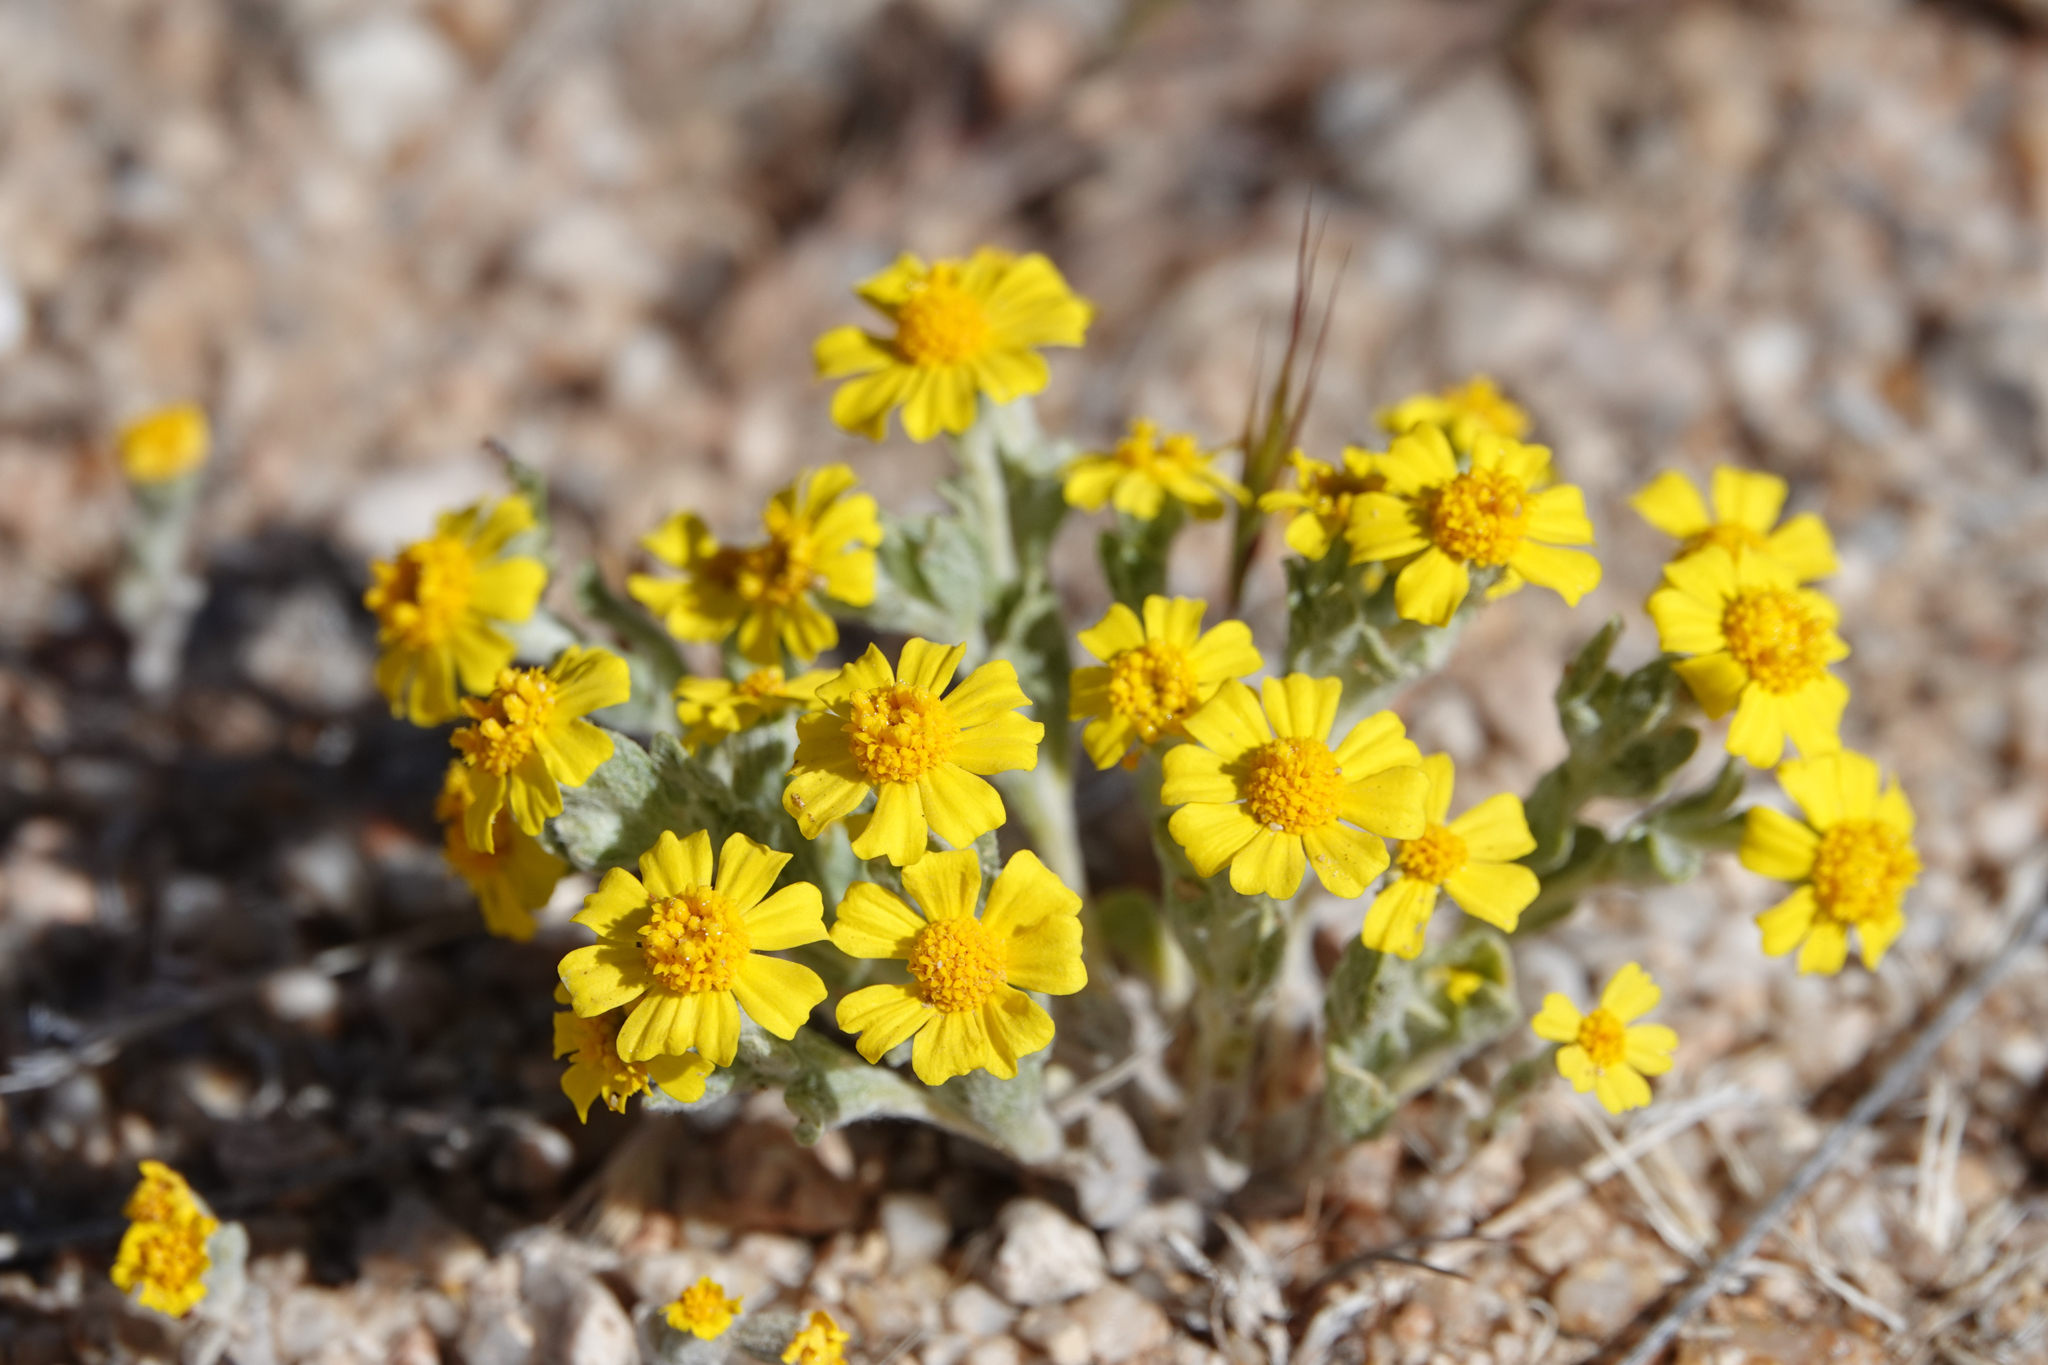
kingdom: Plantae
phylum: Tracheophyta
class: Magnoliopsida
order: Asterales
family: Asteraceae
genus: Eriophyllum
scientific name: Eriophyllum wallacei
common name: Wallace's woolly daisy
